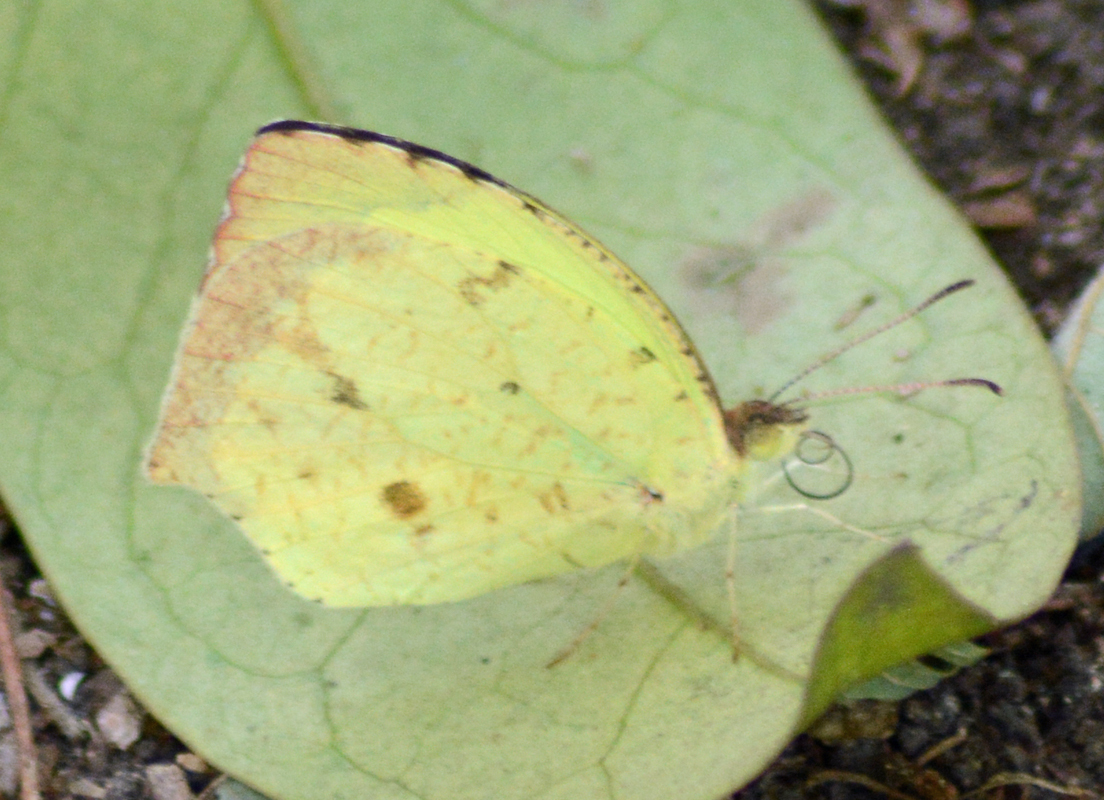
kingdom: Animalia
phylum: Arthropoda
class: Insecta
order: Lepidoptera
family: Pieridae
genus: Abaeis
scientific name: Abaeis salome
